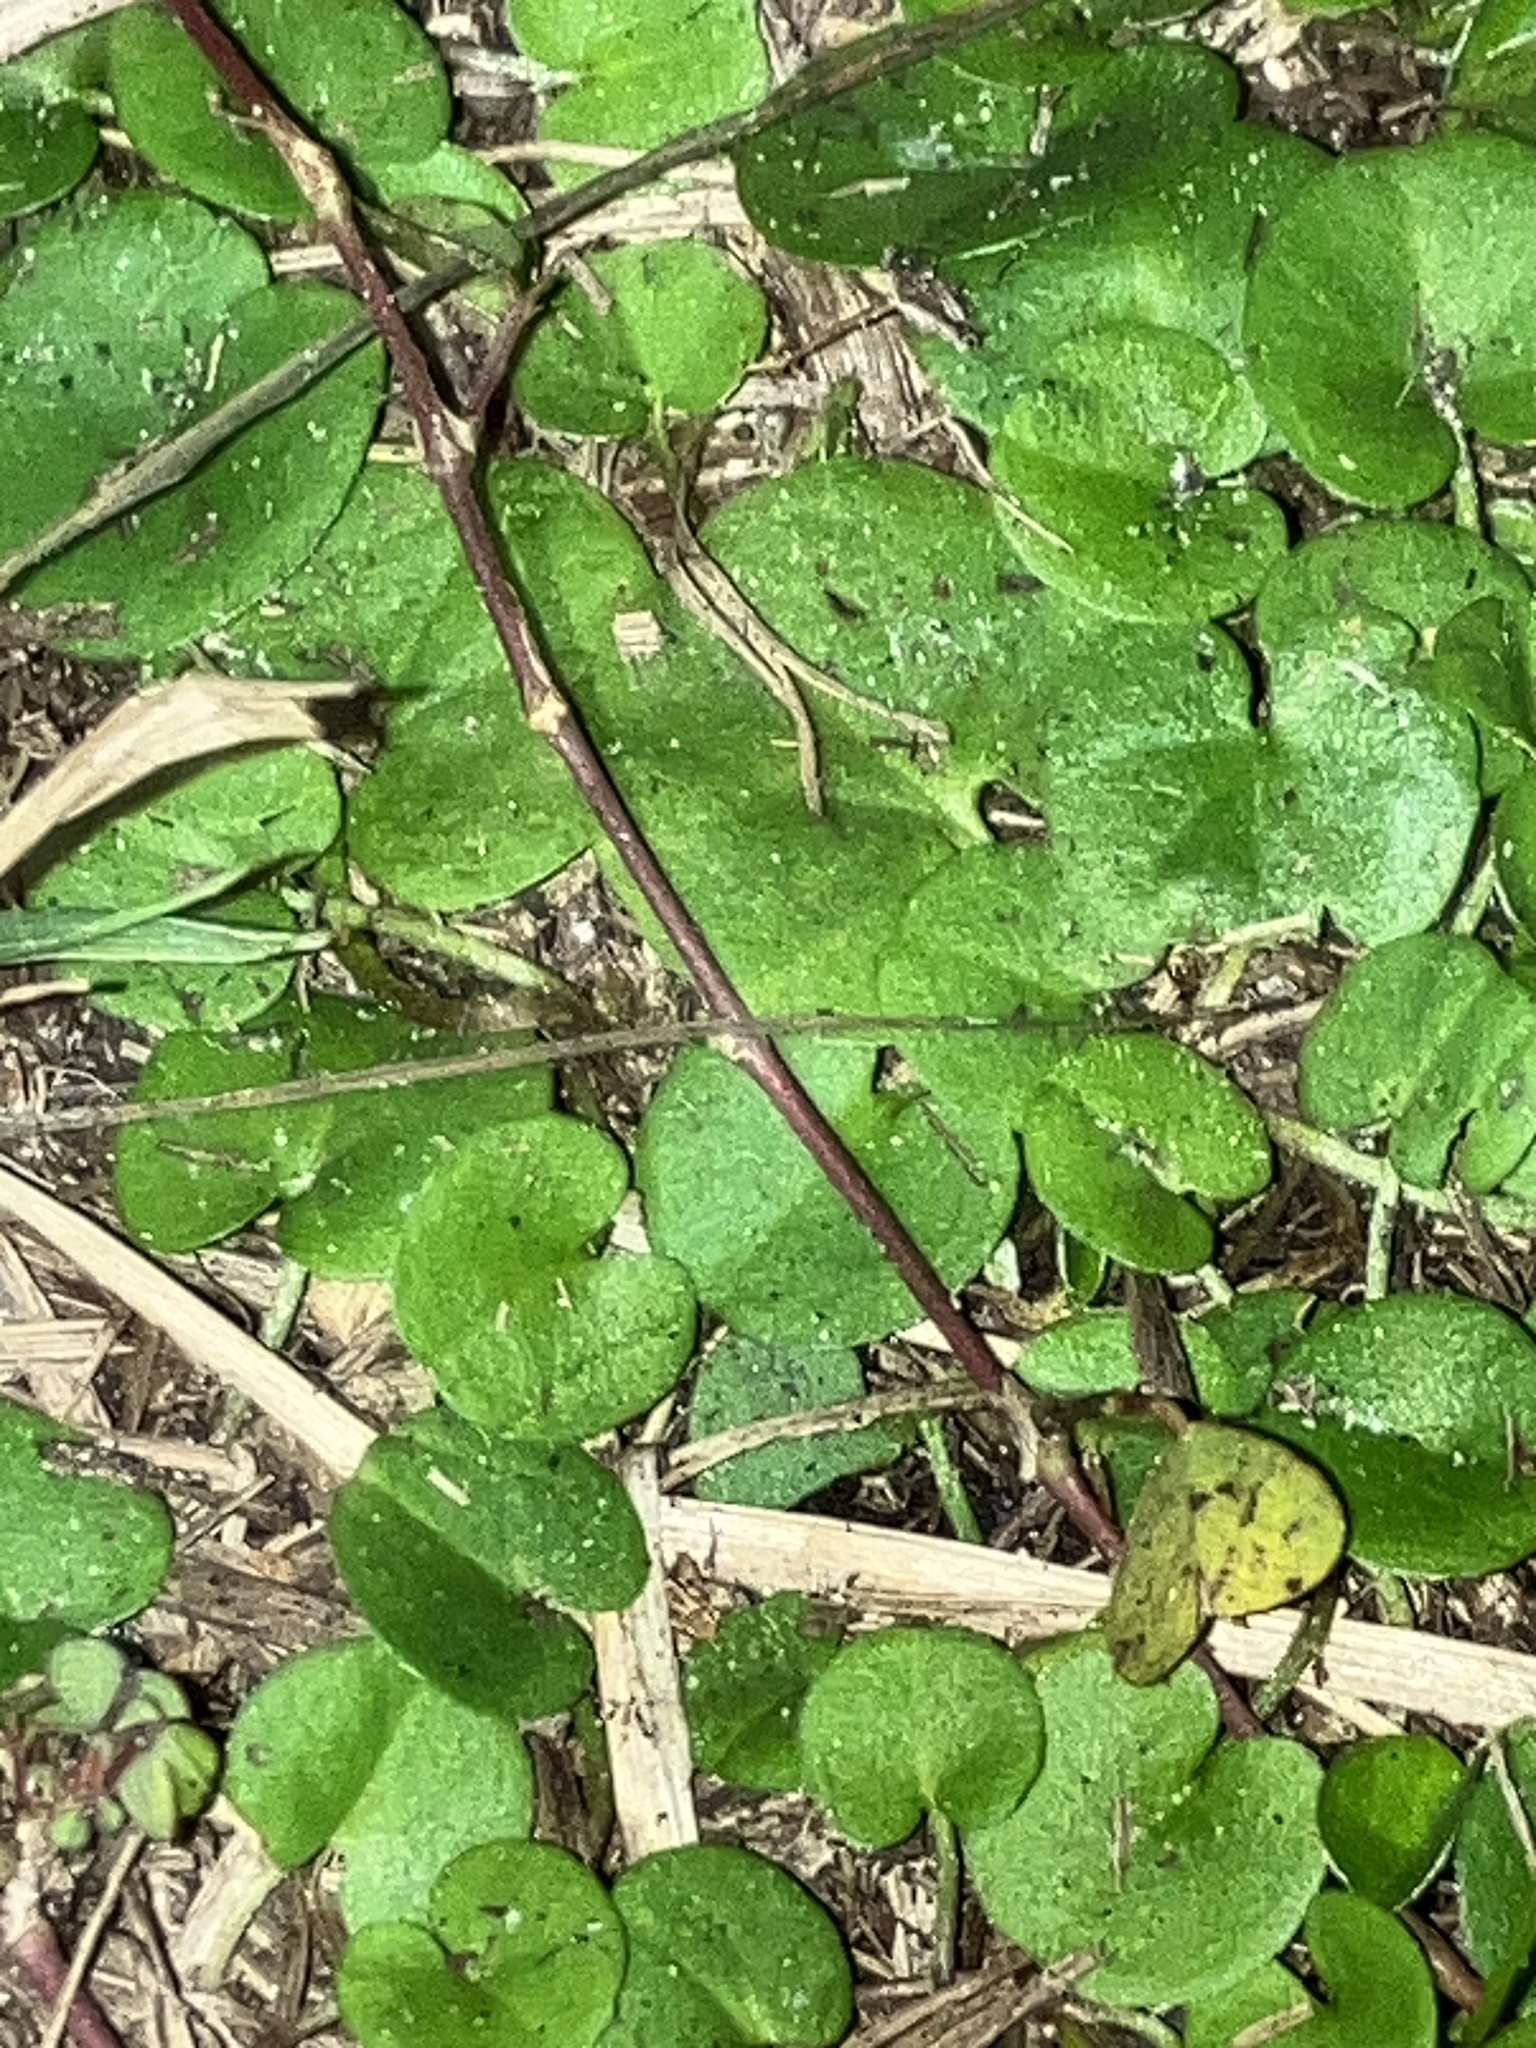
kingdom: Plantae
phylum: Tracheophyta
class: Magnoliopsida
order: Solanales
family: Convolvulaceae
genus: Dichondra
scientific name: Dichondra carolinensis
